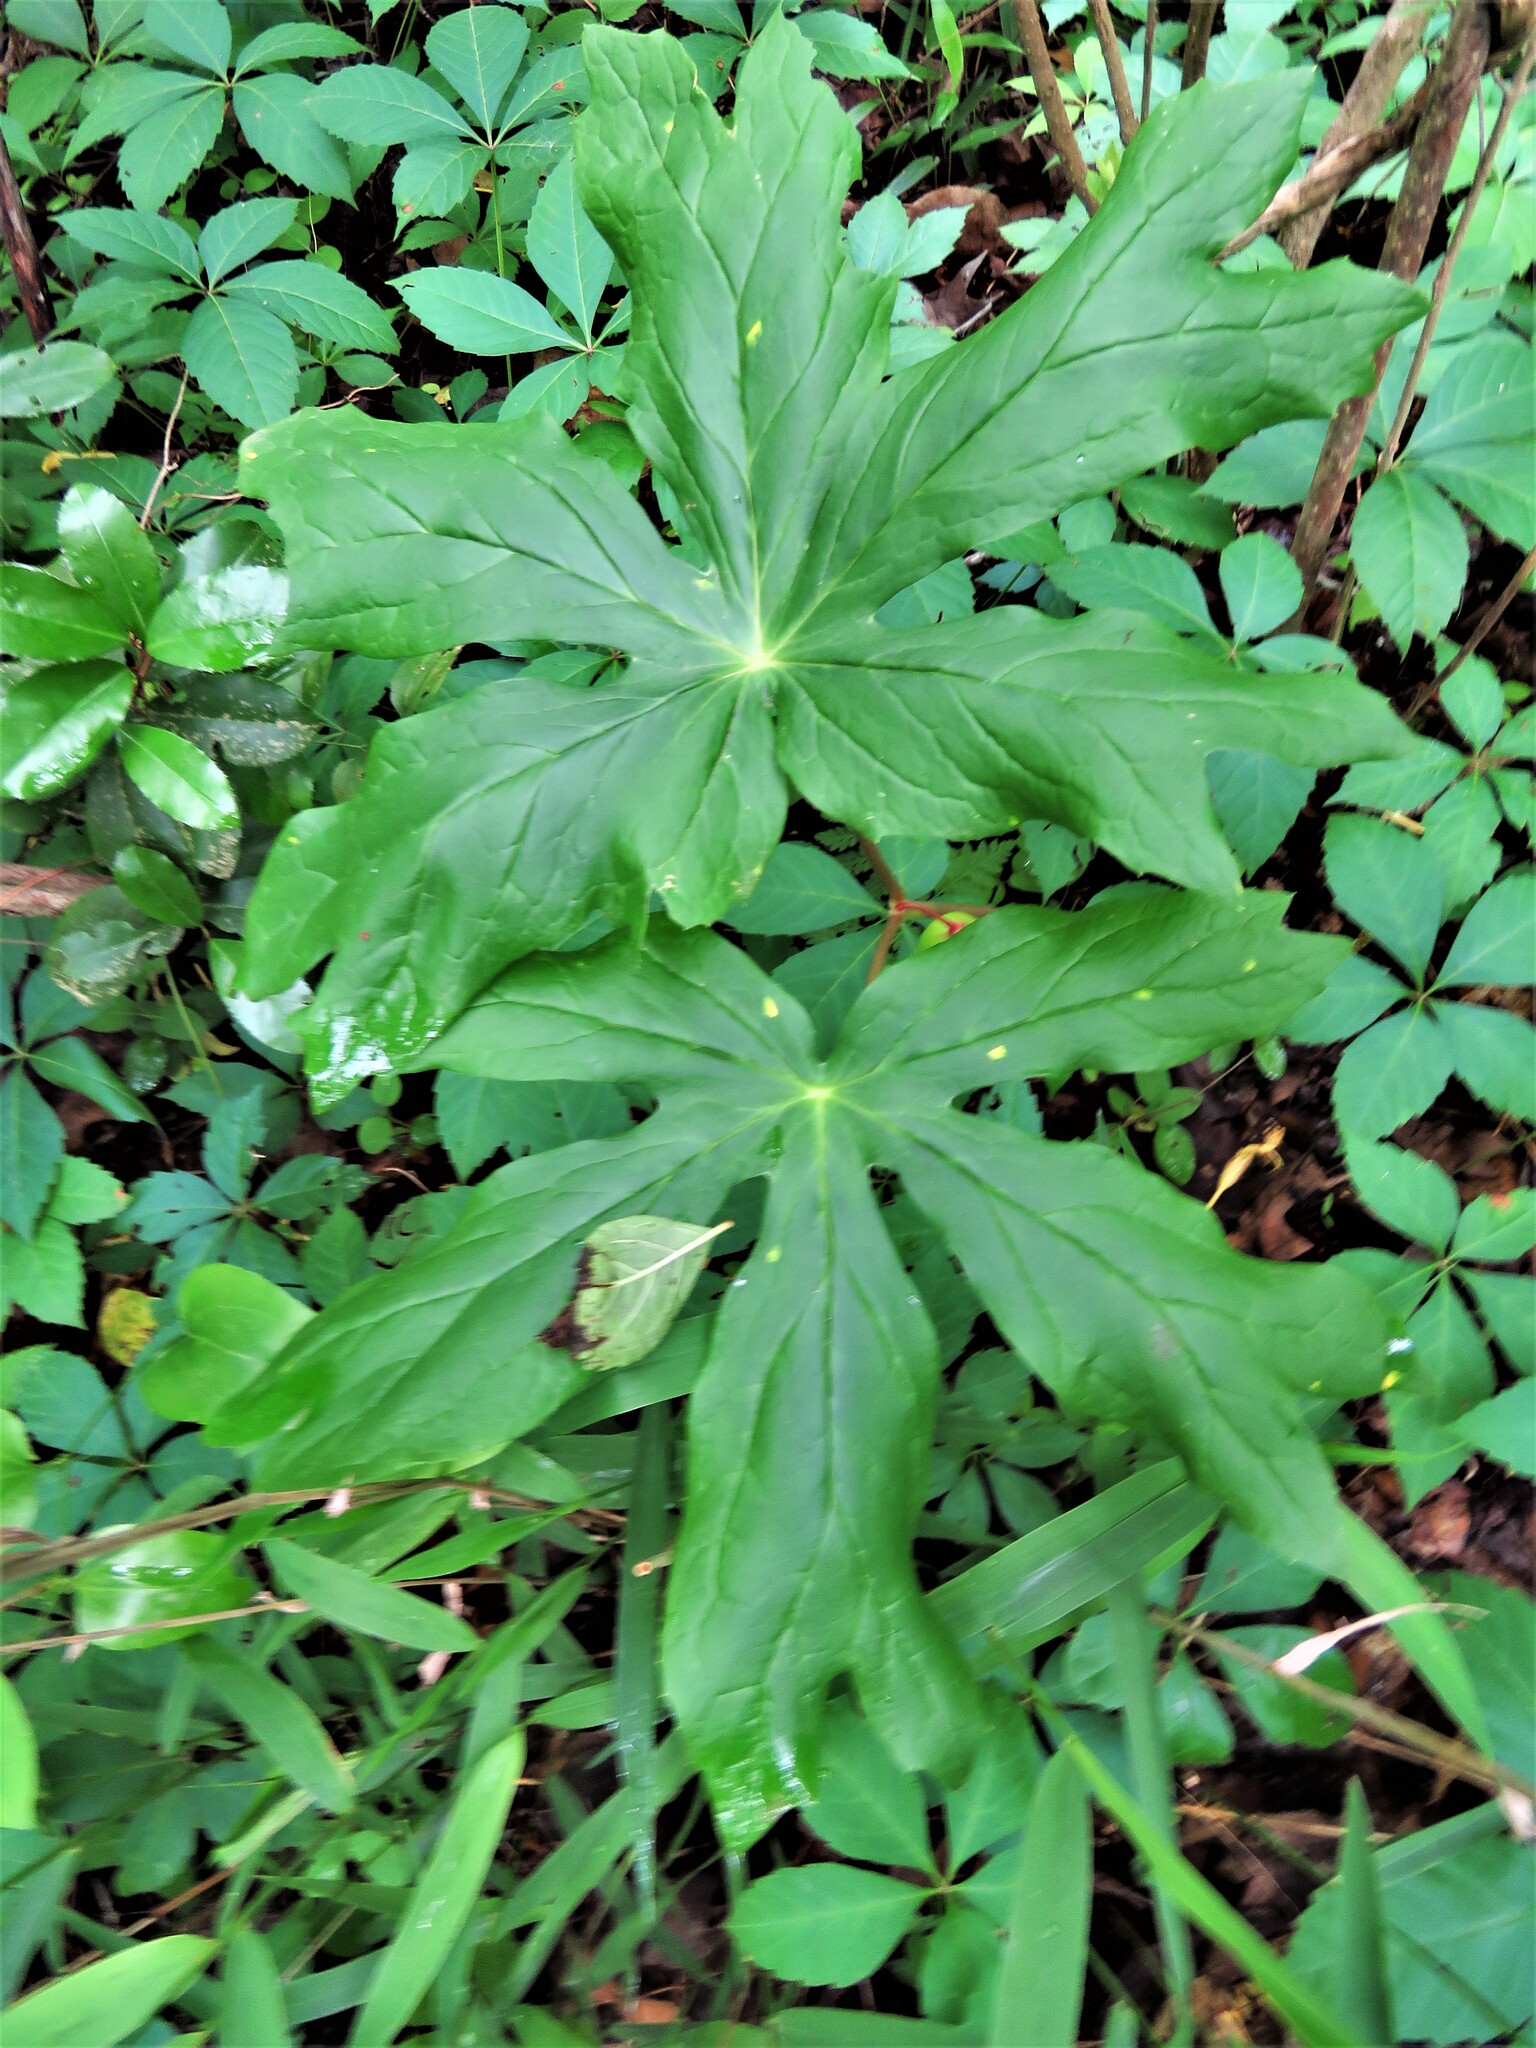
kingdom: Plantae
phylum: Tracheophyta
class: Magnoliopsida
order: Ranunculales
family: Berberidaceae
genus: Podophyllum
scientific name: Podophyllum peltatum
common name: Wild mandrake
